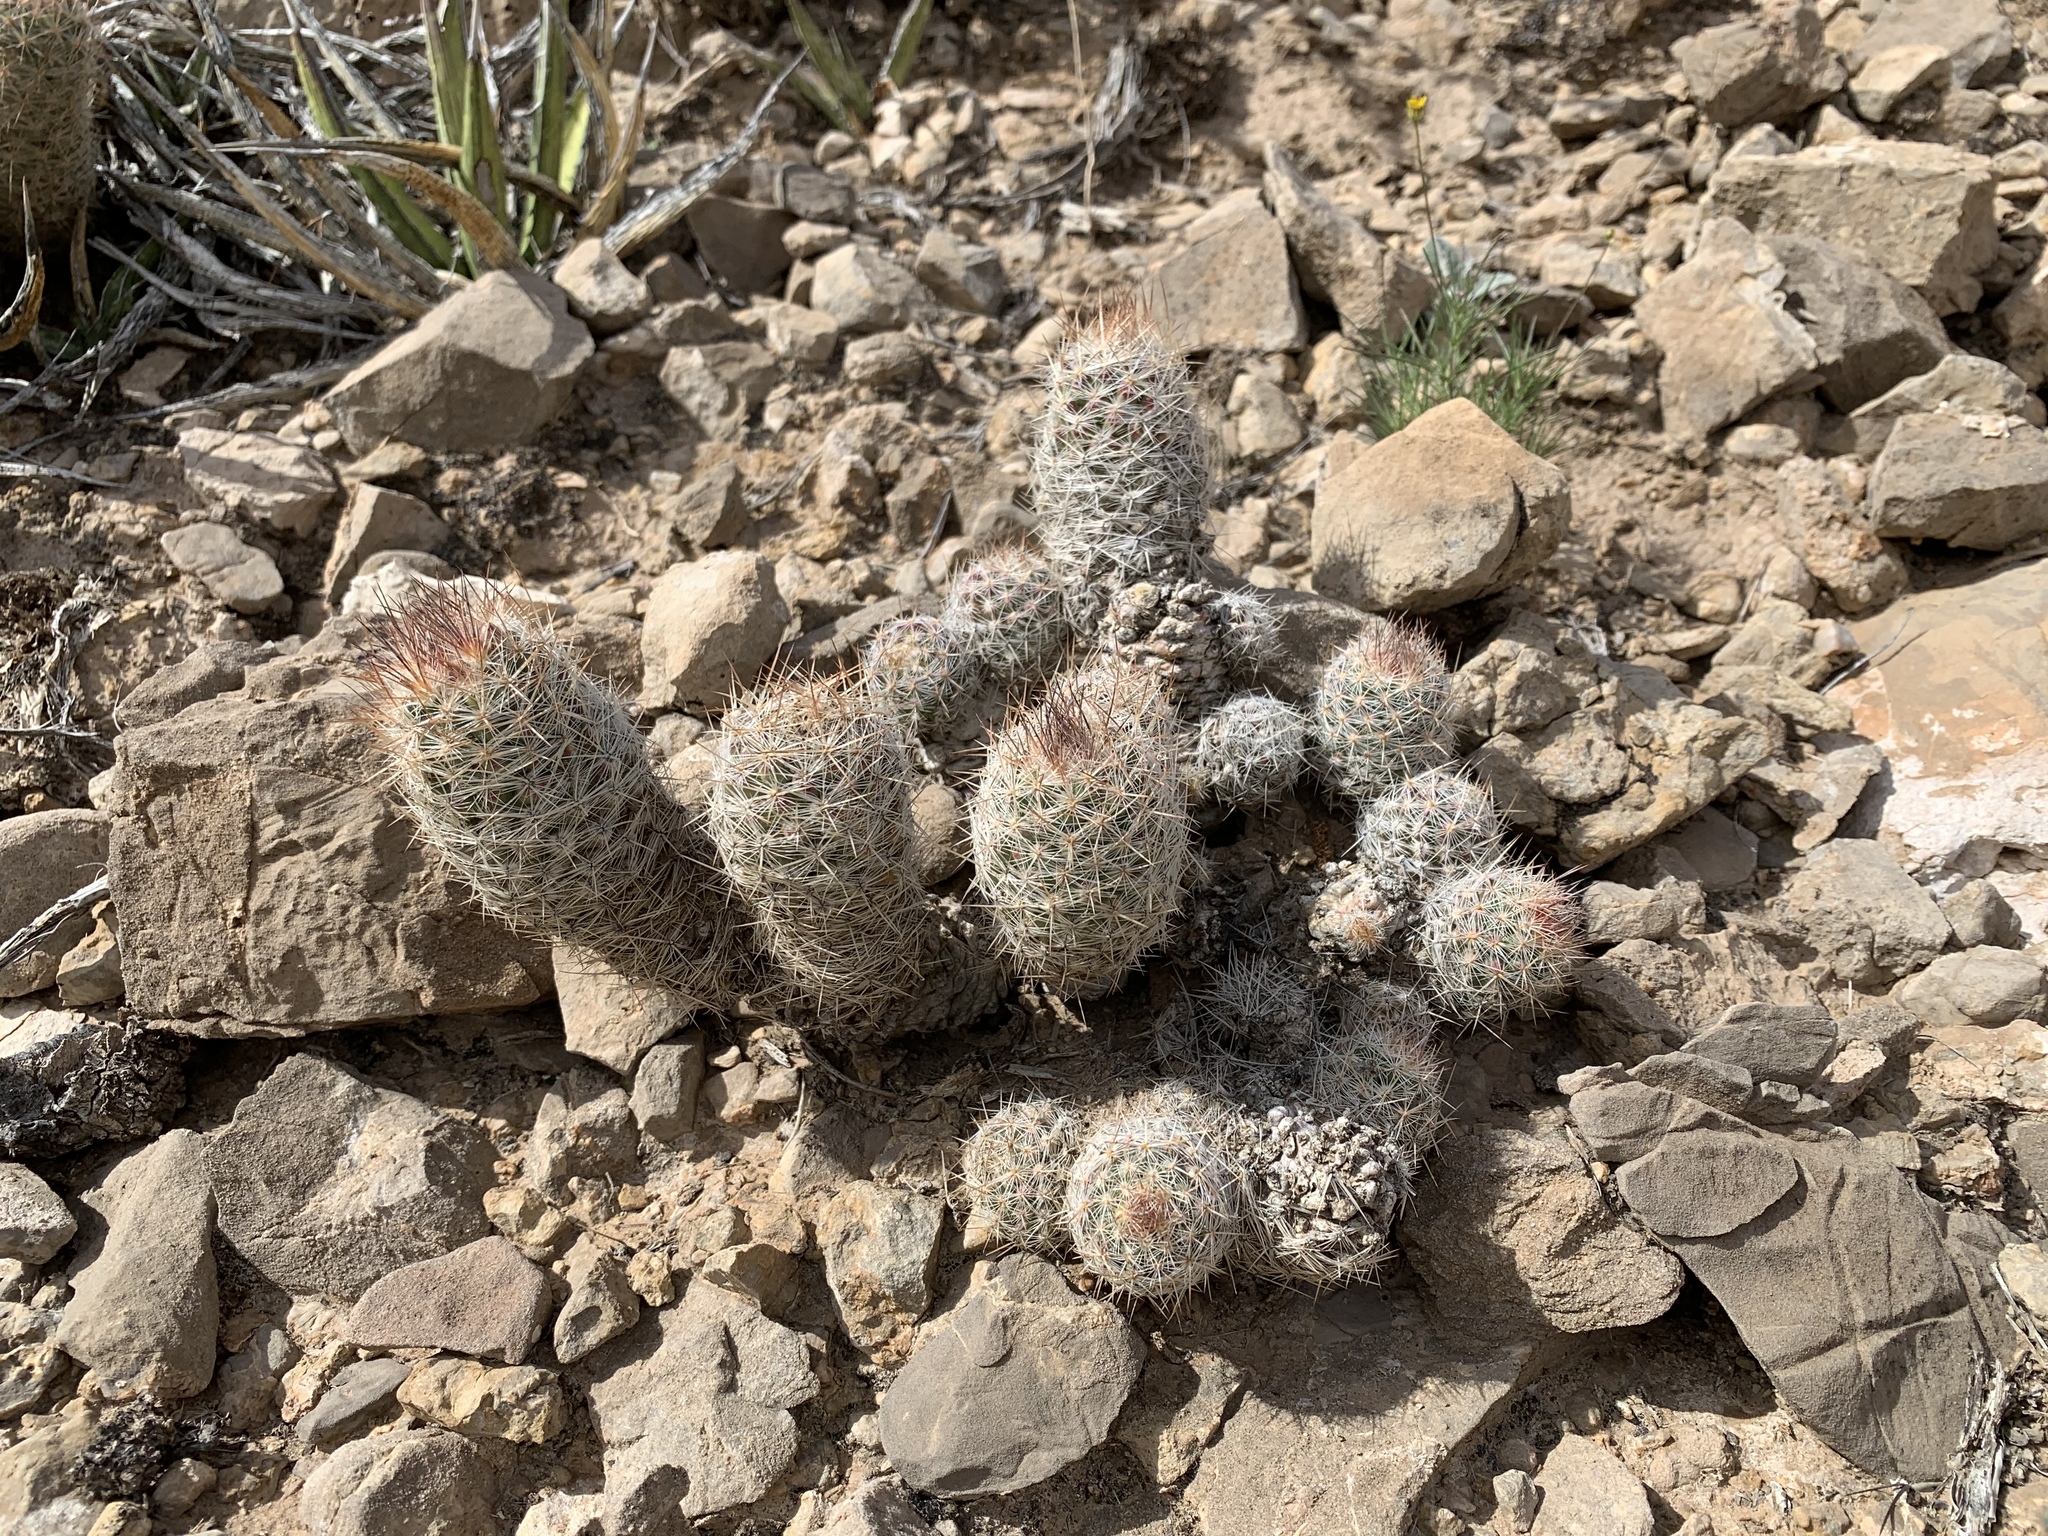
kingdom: Plantae
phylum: Tracheophyta
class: Magnoliopsida
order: Caryophyllales
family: Cactaceae
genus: Pelecyphora
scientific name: Pelecyphora tuberculosa
